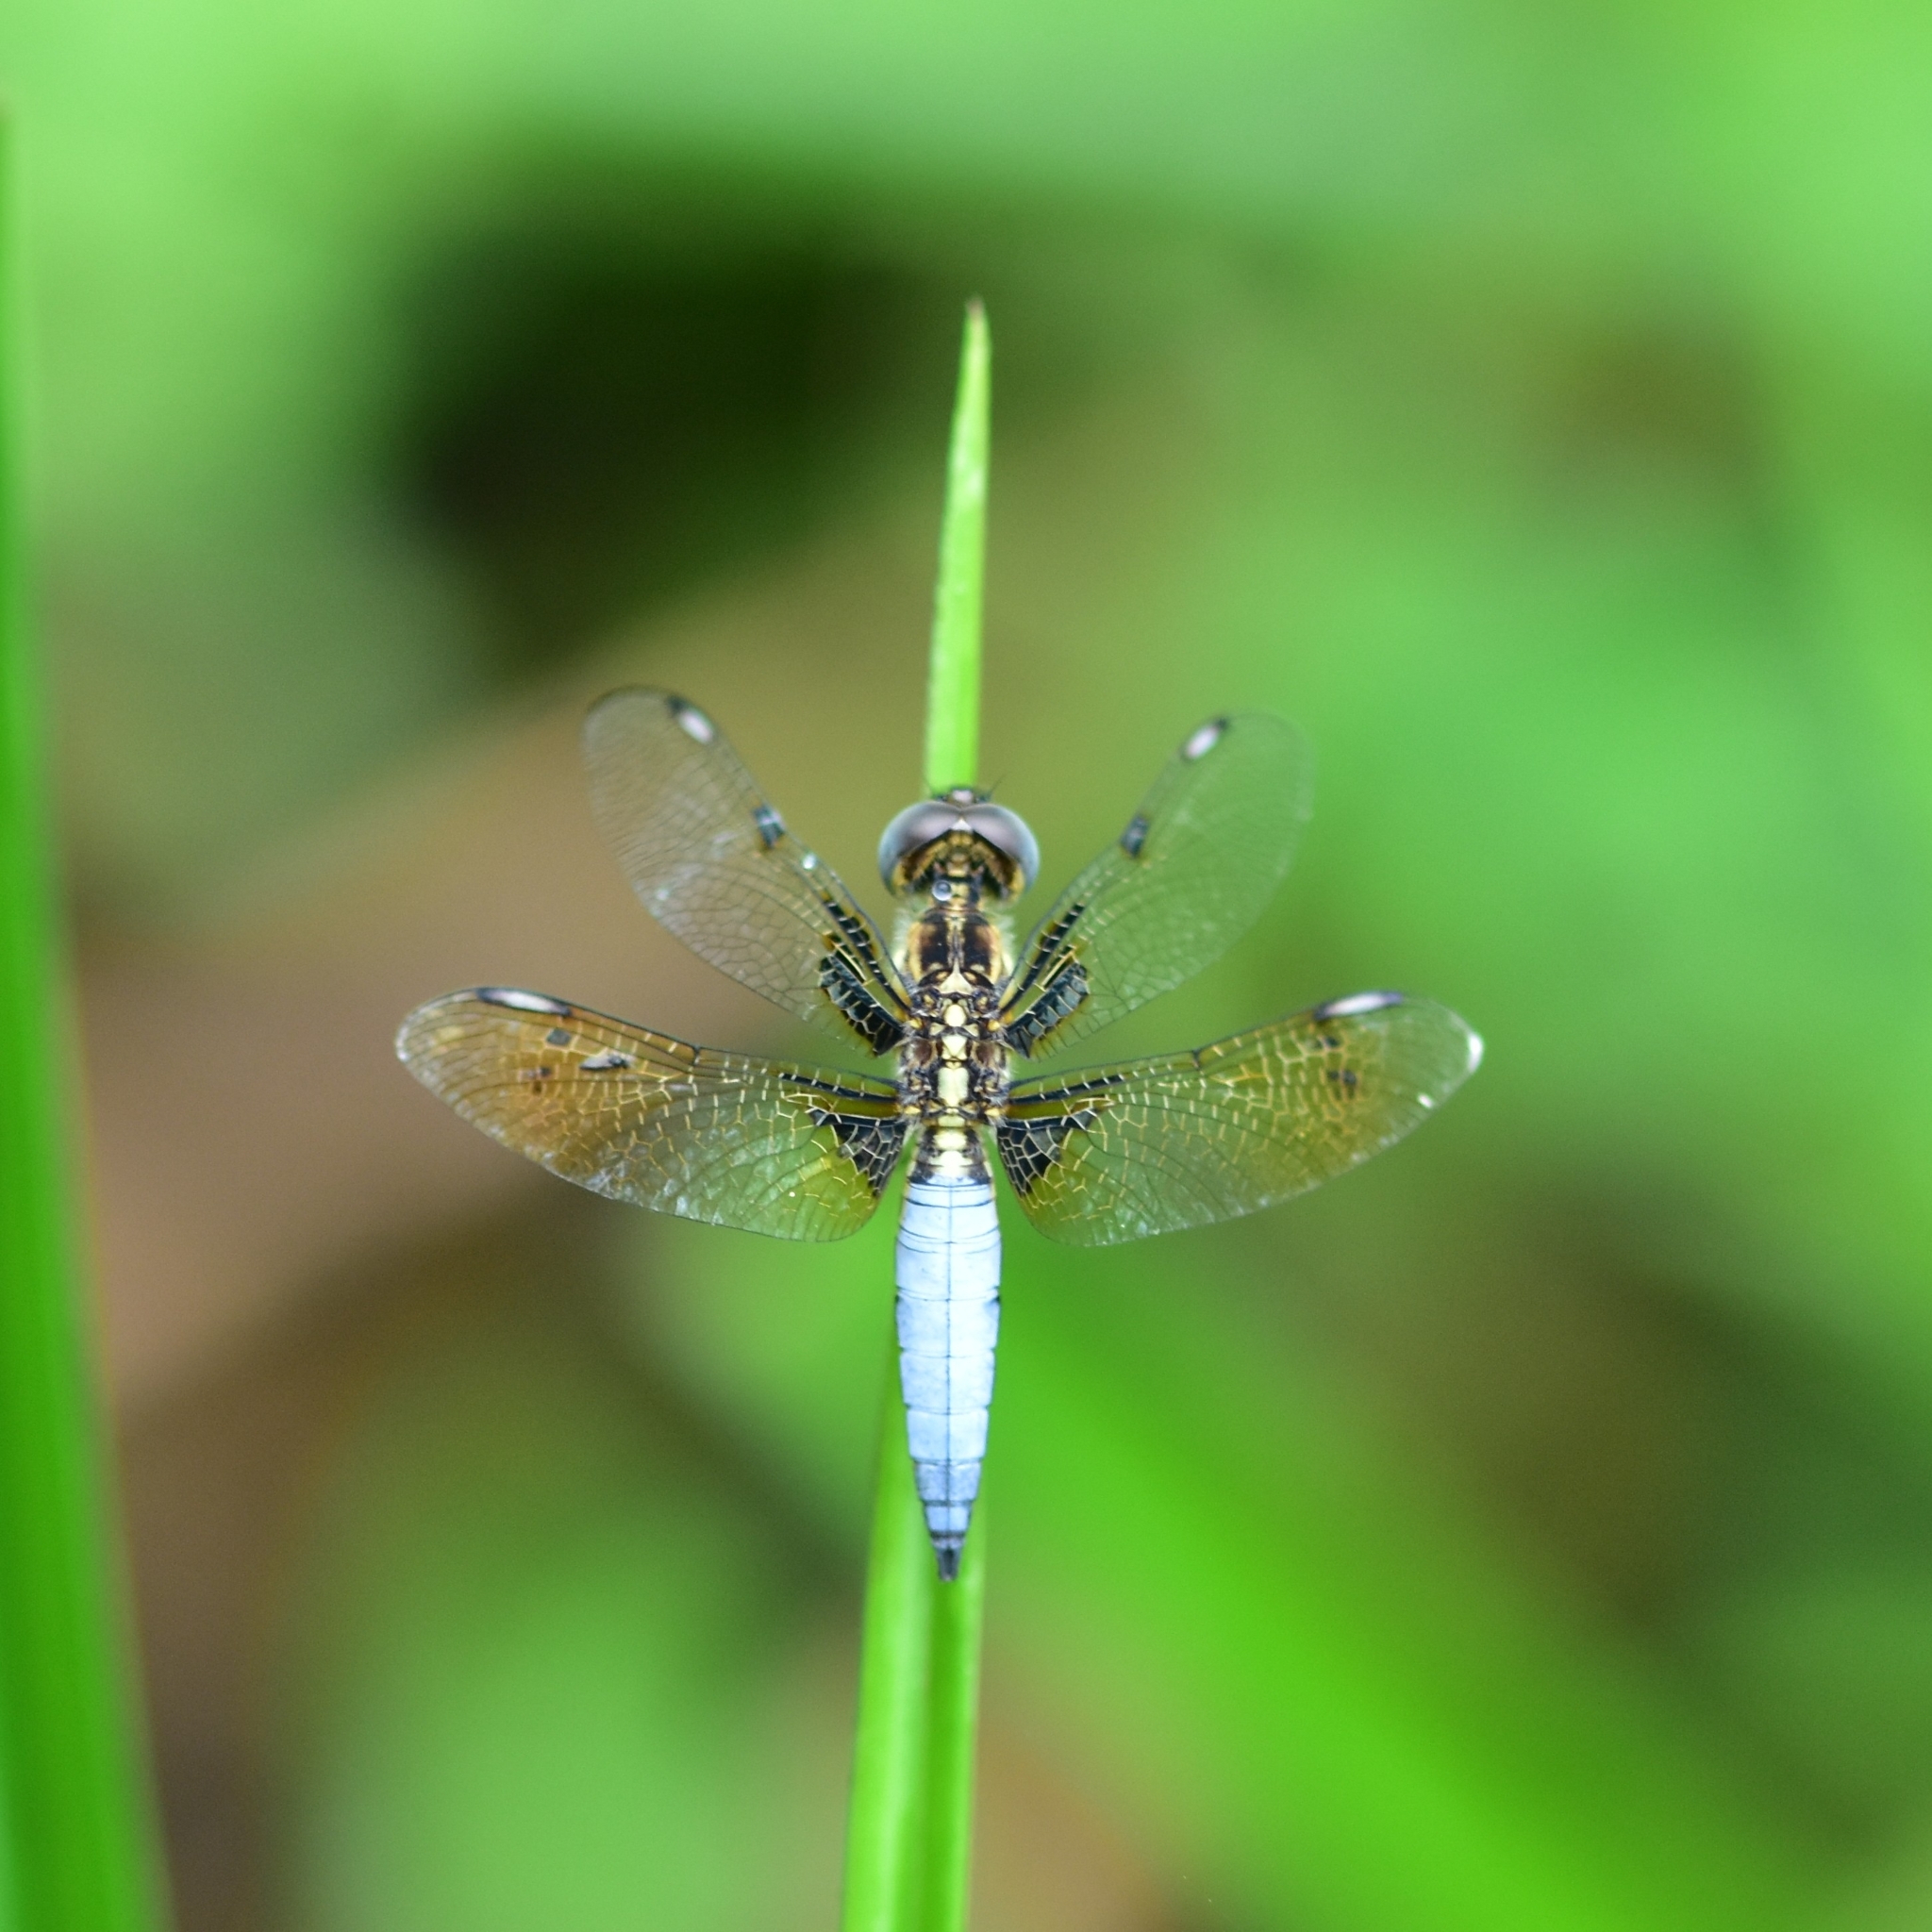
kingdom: Animalia
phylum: Arthropoda
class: Insecta
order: Odonata
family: Libellulidae
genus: Palpopleura
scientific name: Palpopleura sexmaculata
